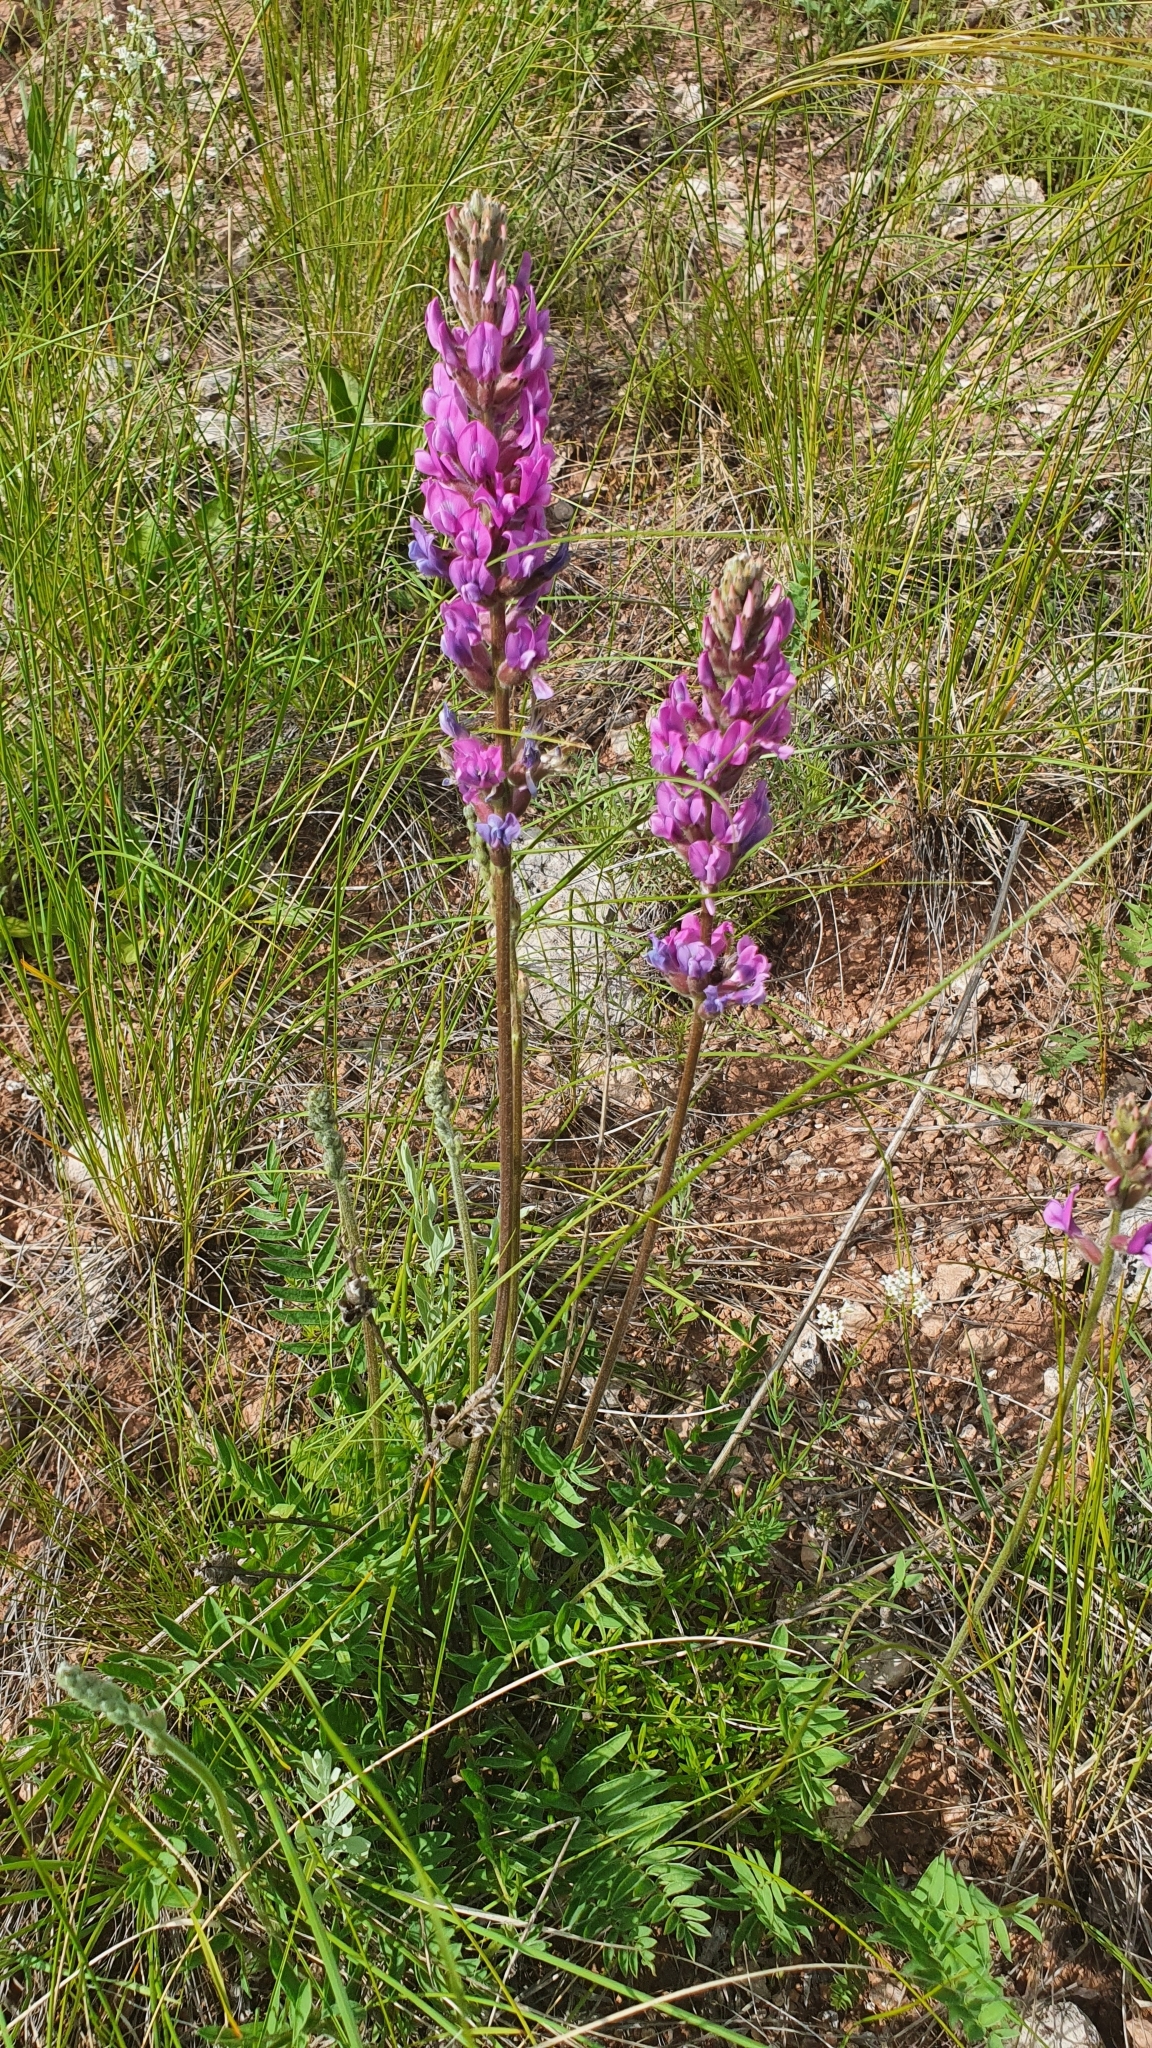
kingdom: Plantae
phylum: Tracheophyta
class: Magnoliopsida
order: Fabales
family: Fabaceae
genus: Oxytropis
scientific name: Oxytropis knjazevii
